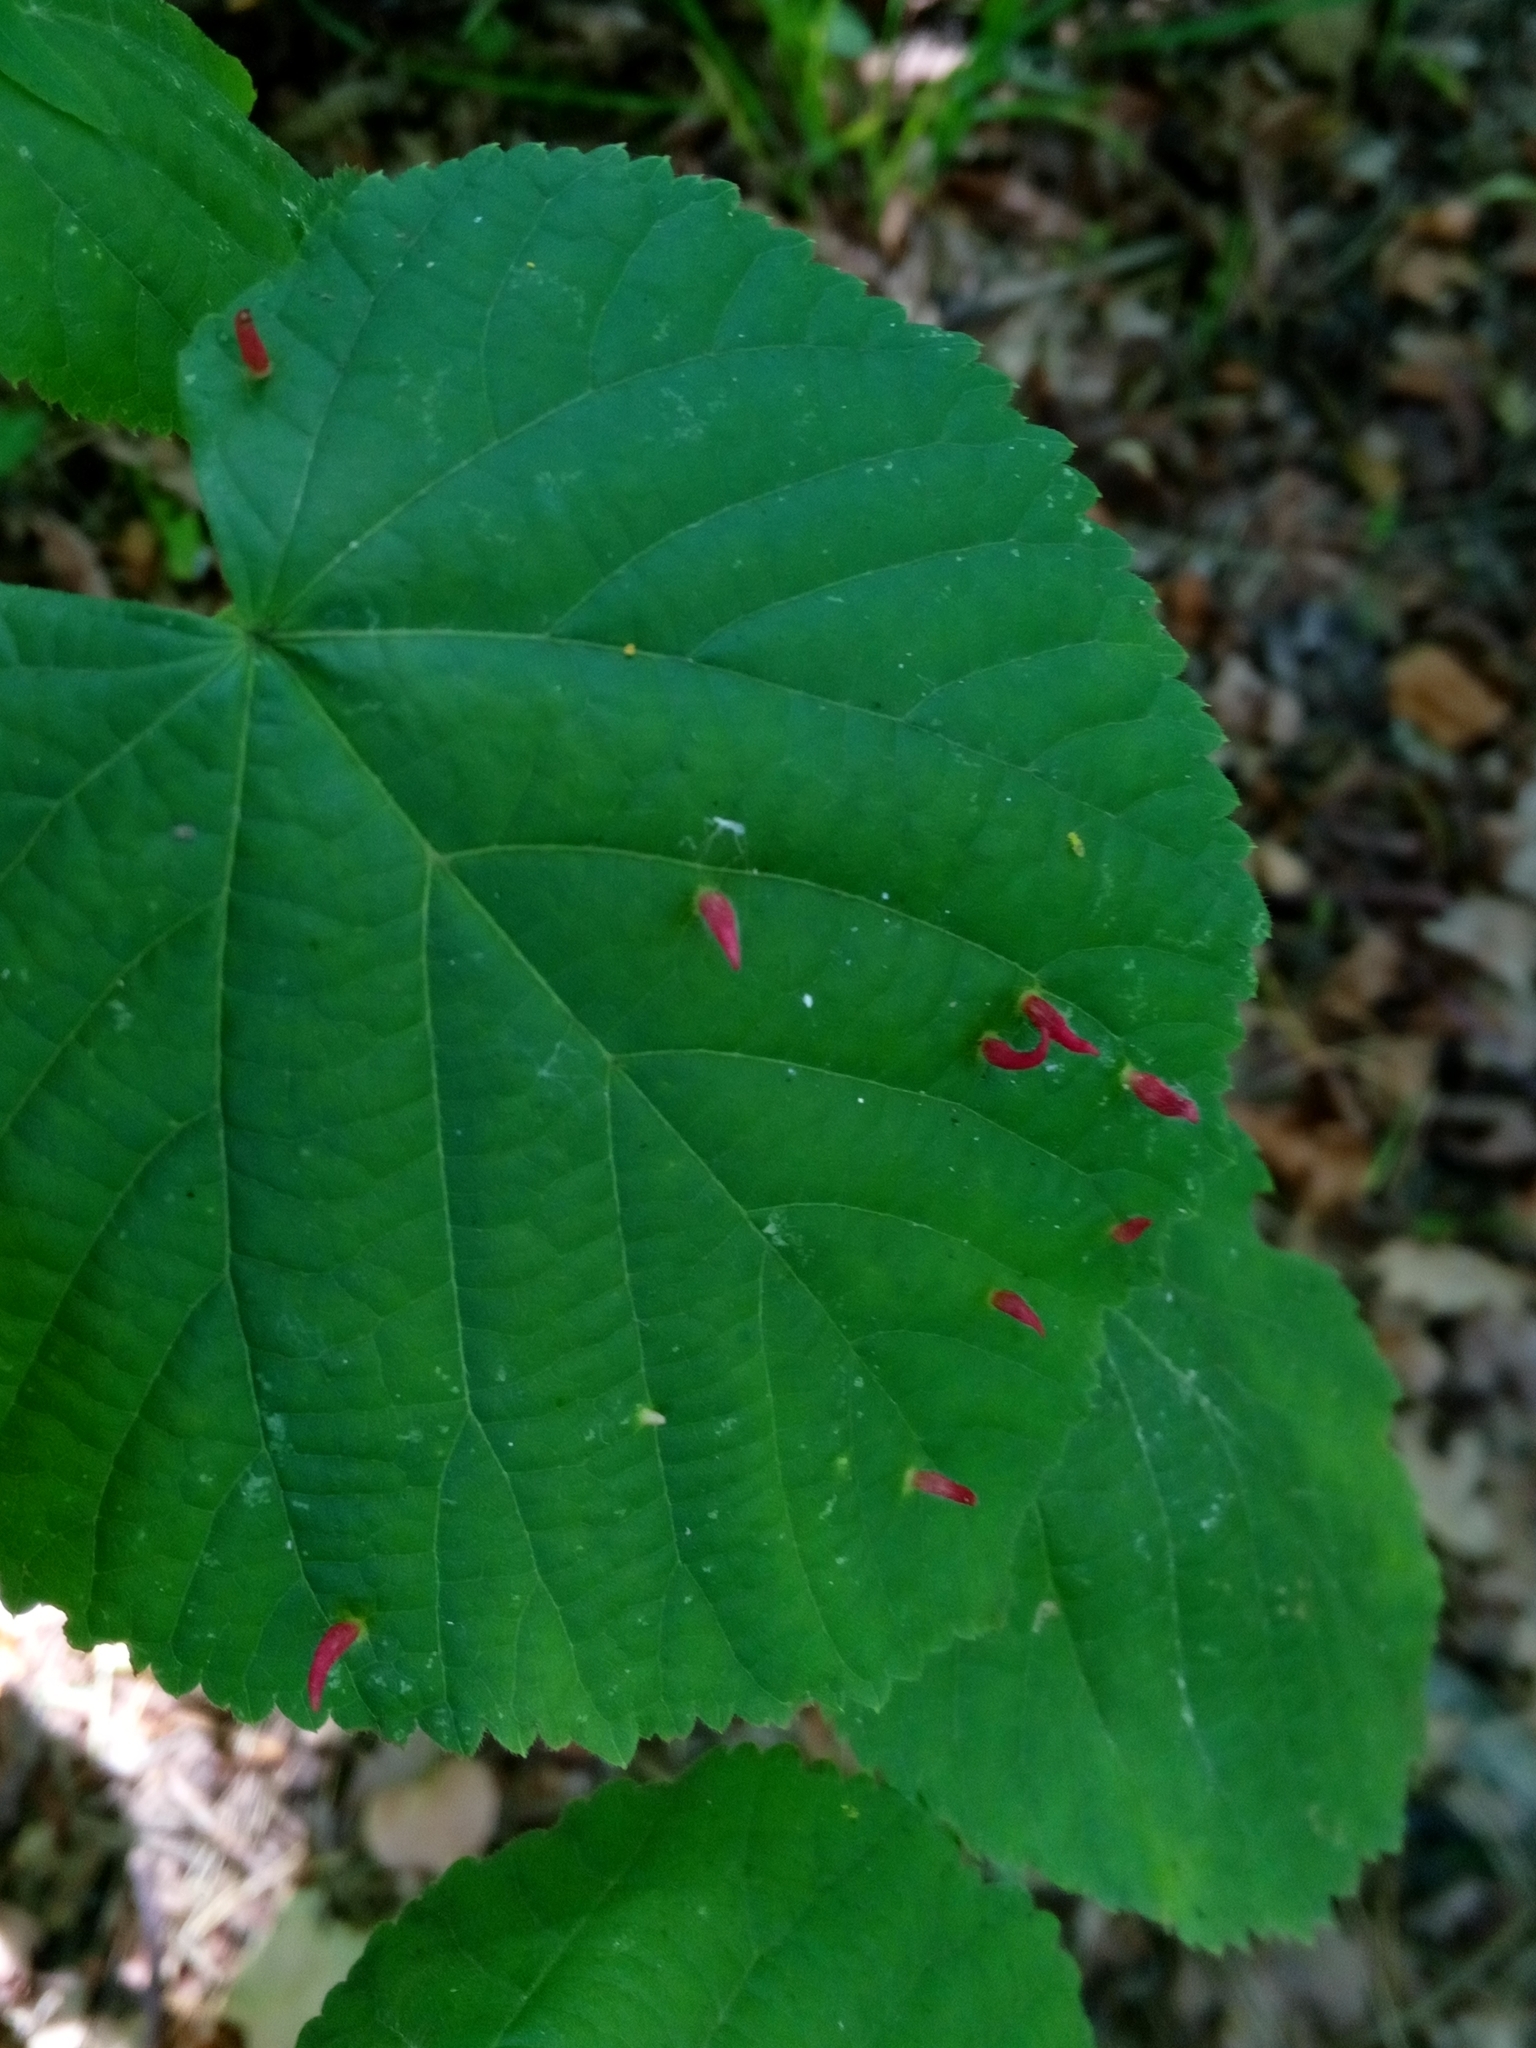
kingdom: Animalia
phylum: Arthropoda
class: Arachnida
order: Trombidiformes
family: Eriophyidae
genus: Eriophyes
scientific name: Eriophyes tiliae
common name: Red nail gall mite
